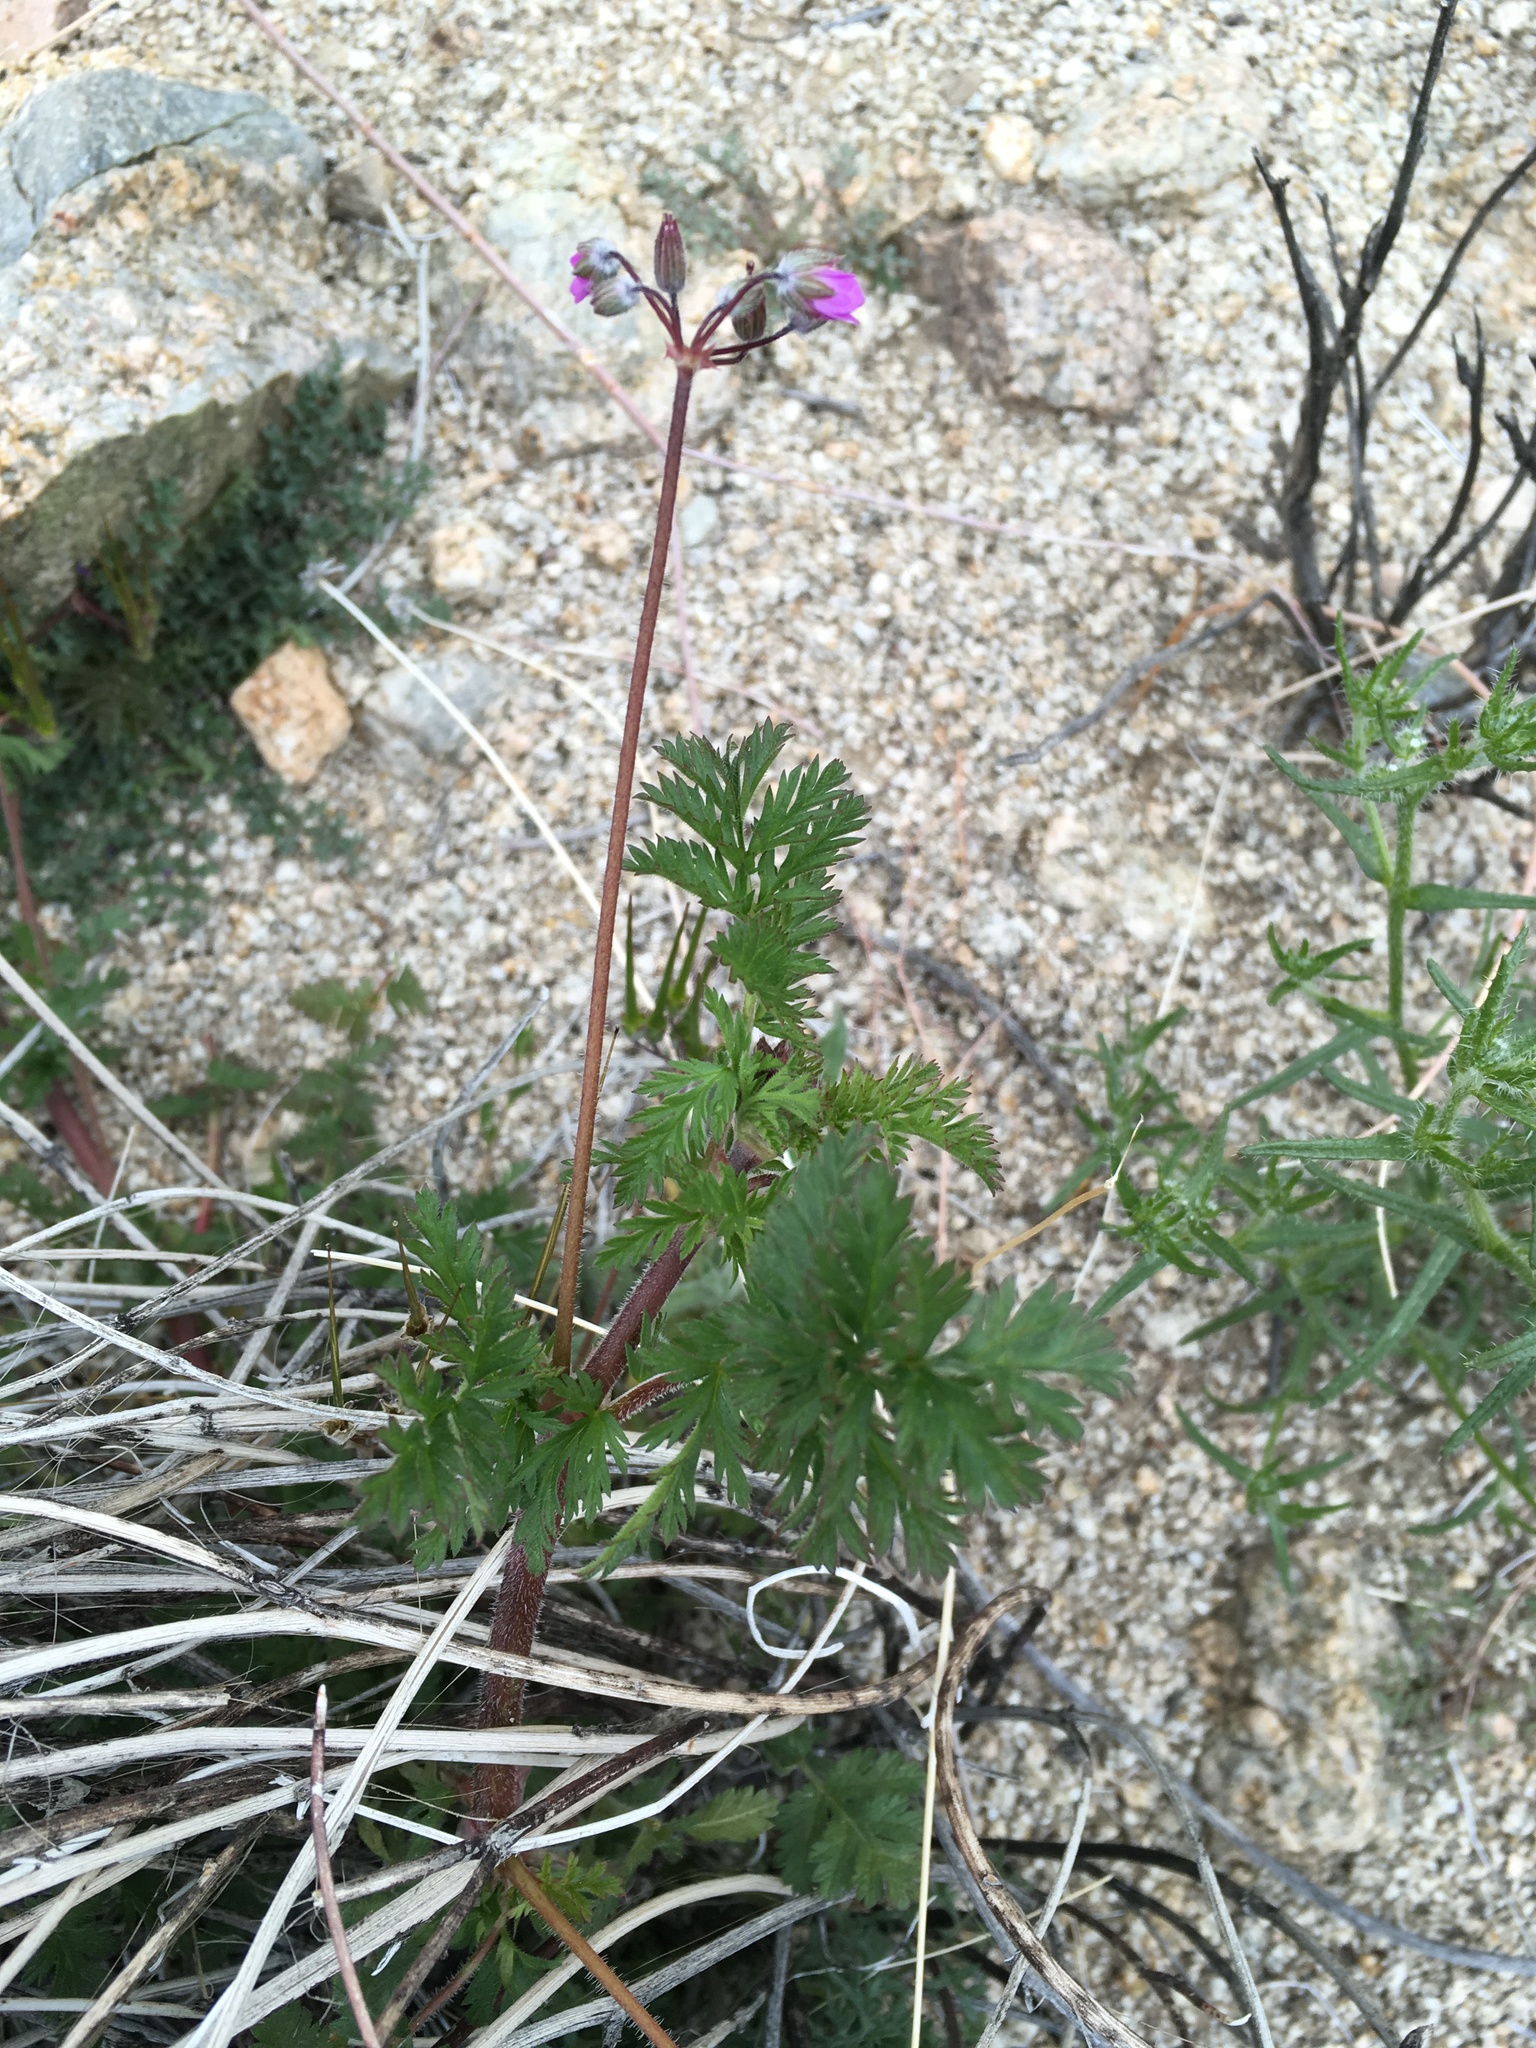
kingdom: Plantae
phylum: Tracheophyta
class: Magnoliopsida
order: Geraniales
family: Geraniaceae
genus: Erodium
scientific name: Erodium cicutarium
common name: Common stork's-bill
